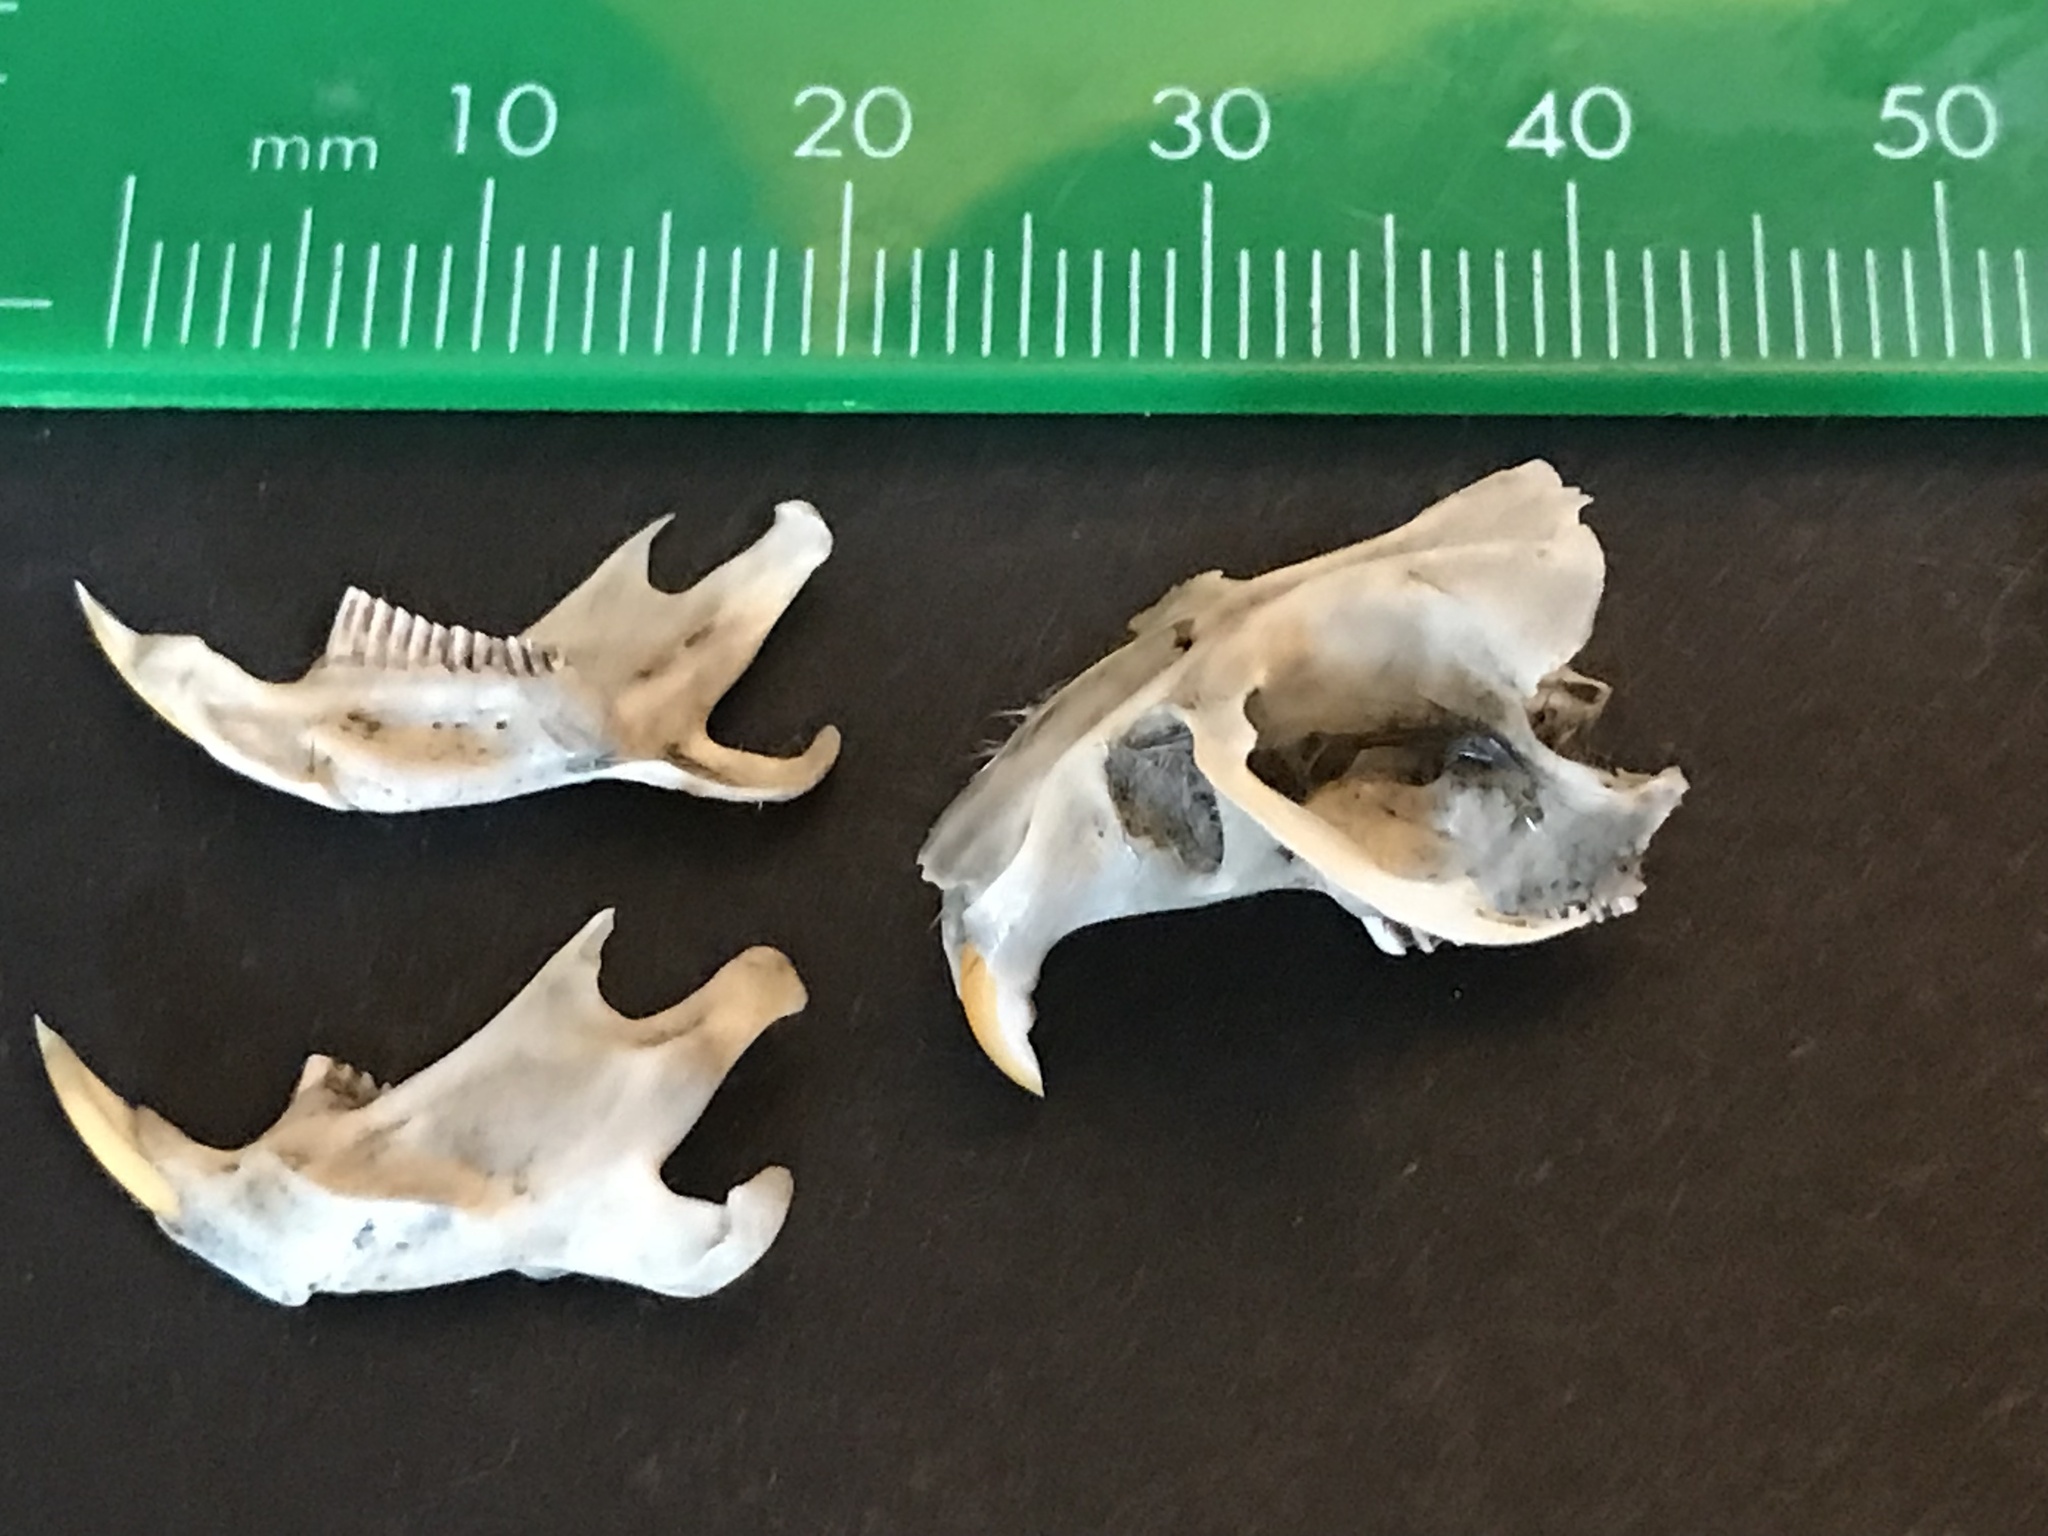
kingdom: Animalia
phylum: Chordata
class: Mammalia
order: Rodentia
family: Cricetidae
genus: Microtus
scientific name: Microtus californicus
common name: California vole
